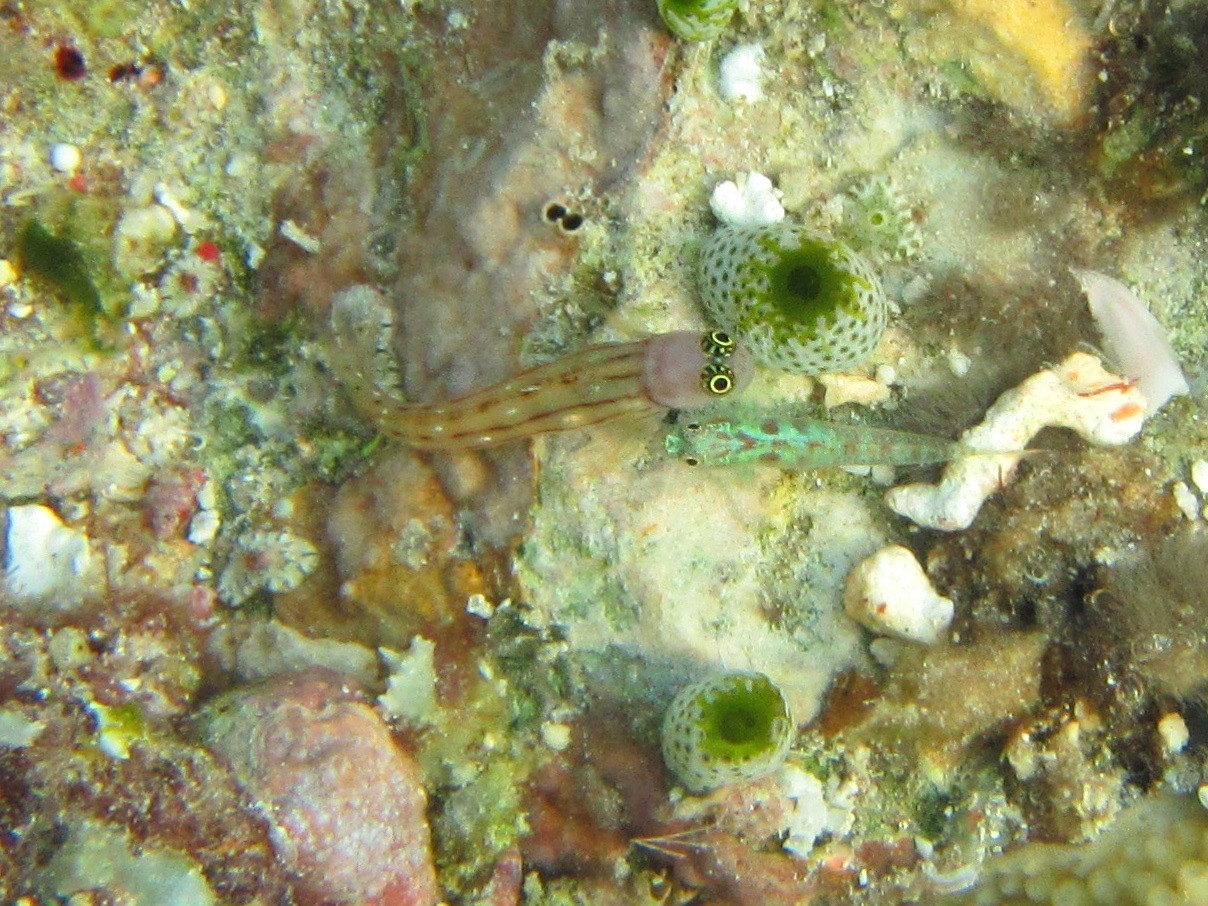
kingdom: Animalia
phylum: Chordata
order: Perciformes
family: Blenniidae
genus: Ecsenius
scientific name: Ecsenius trilineatus
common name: Three-lined blenny
